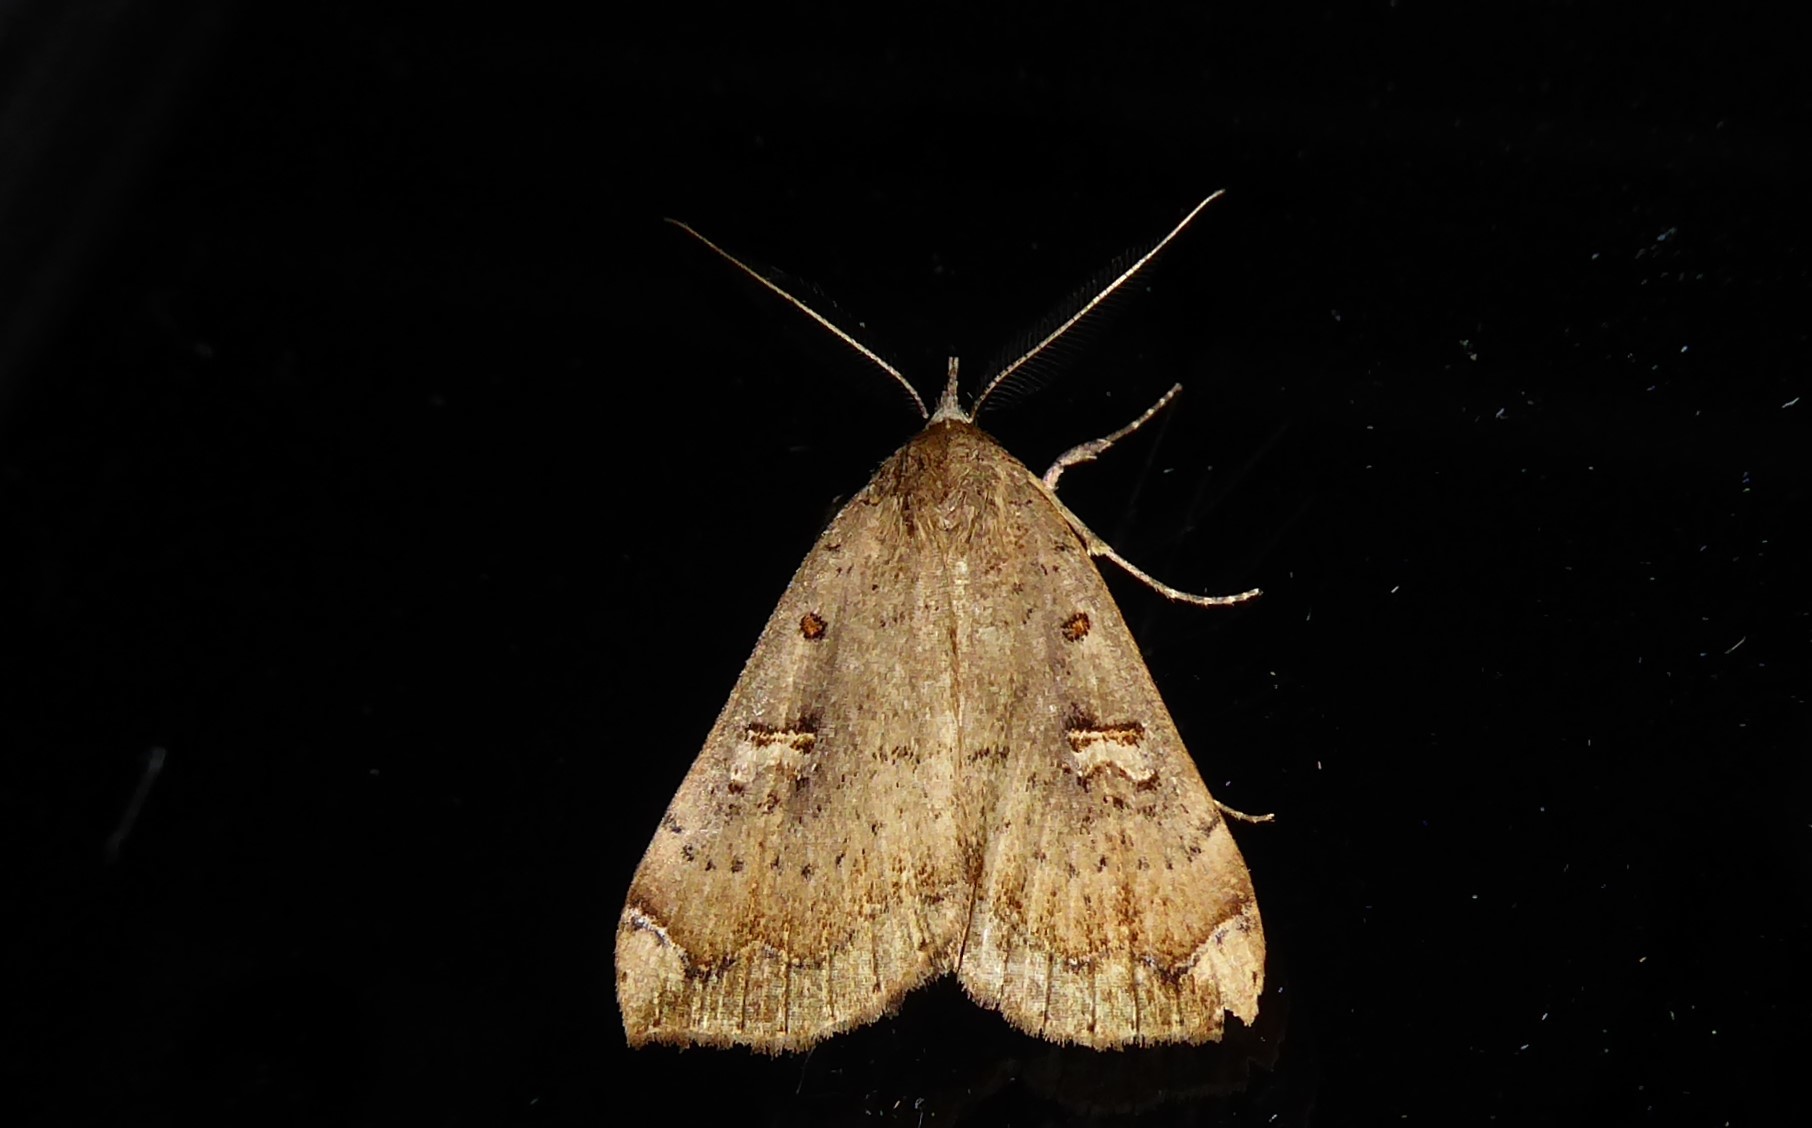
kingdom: Animalia
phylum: Arthropoda
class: Insecta
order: Lepidoptera
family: Erebidae
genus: Rhapsa
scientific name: Rhapsa scotosialis
